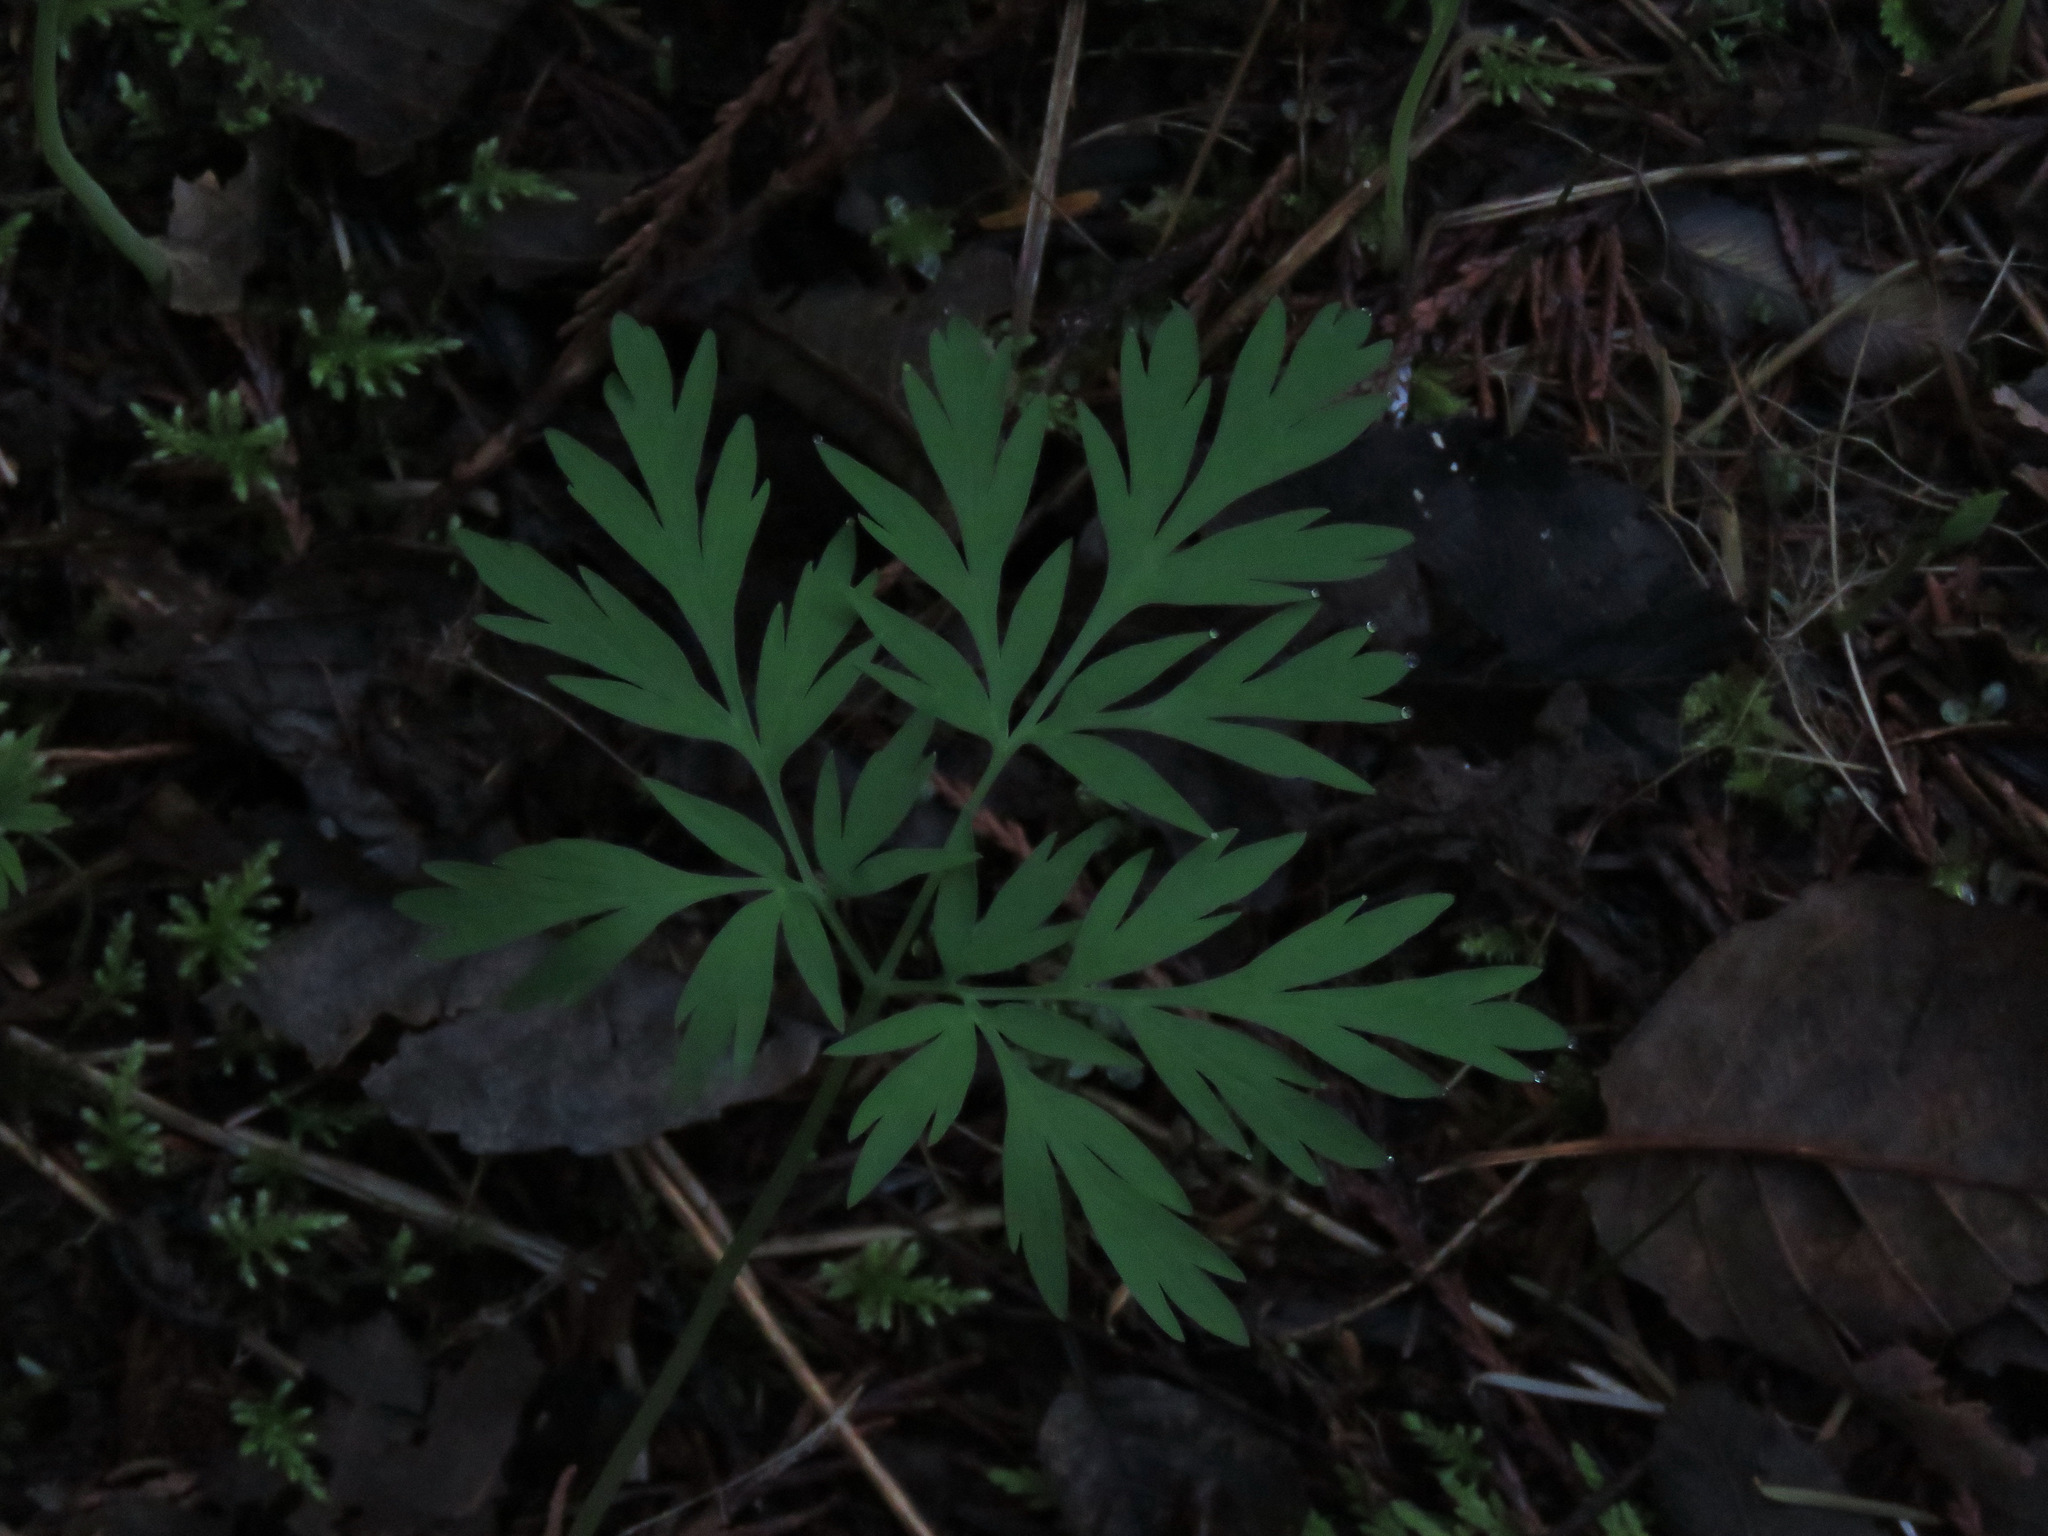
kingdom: Plantae
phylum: Tracheophyta
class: Magnoliopsida
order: Ranunculales
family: Papaveraceae
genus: Dicentra
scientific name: Dicentra formosa
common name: Bleeding-heart
